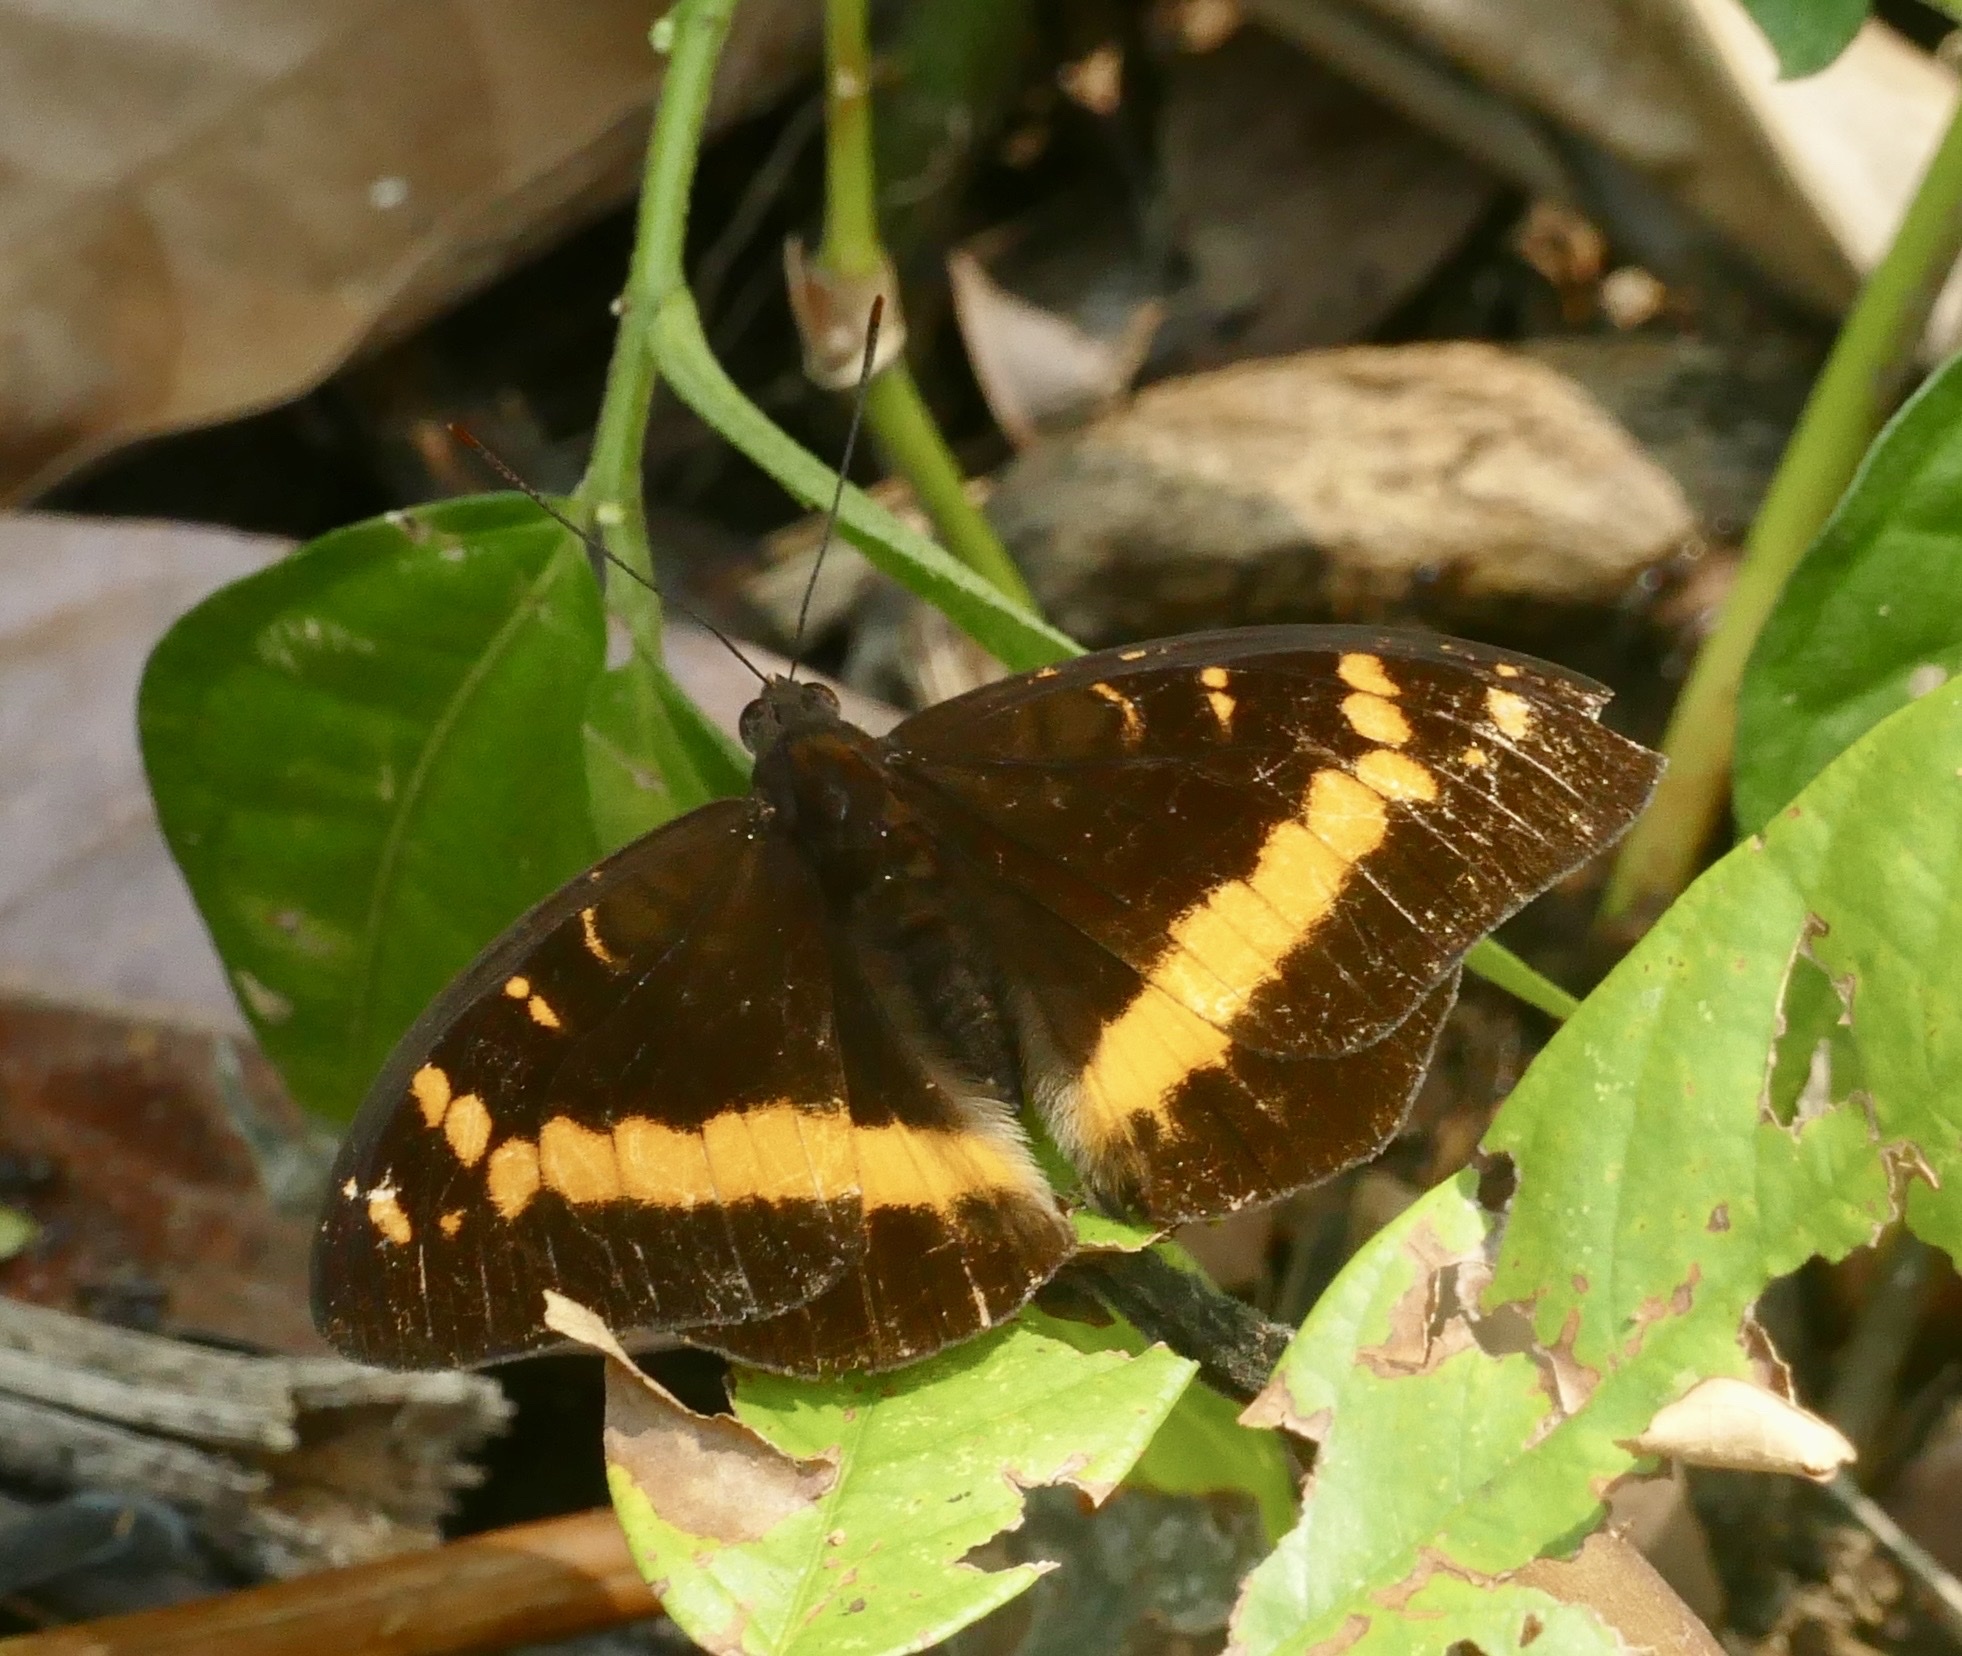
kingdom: Animalia
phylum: Arthropoda
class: Insecta
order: Lepidoptera
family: Nymphalidae
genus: Lexias
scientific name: Lexias aeropa
